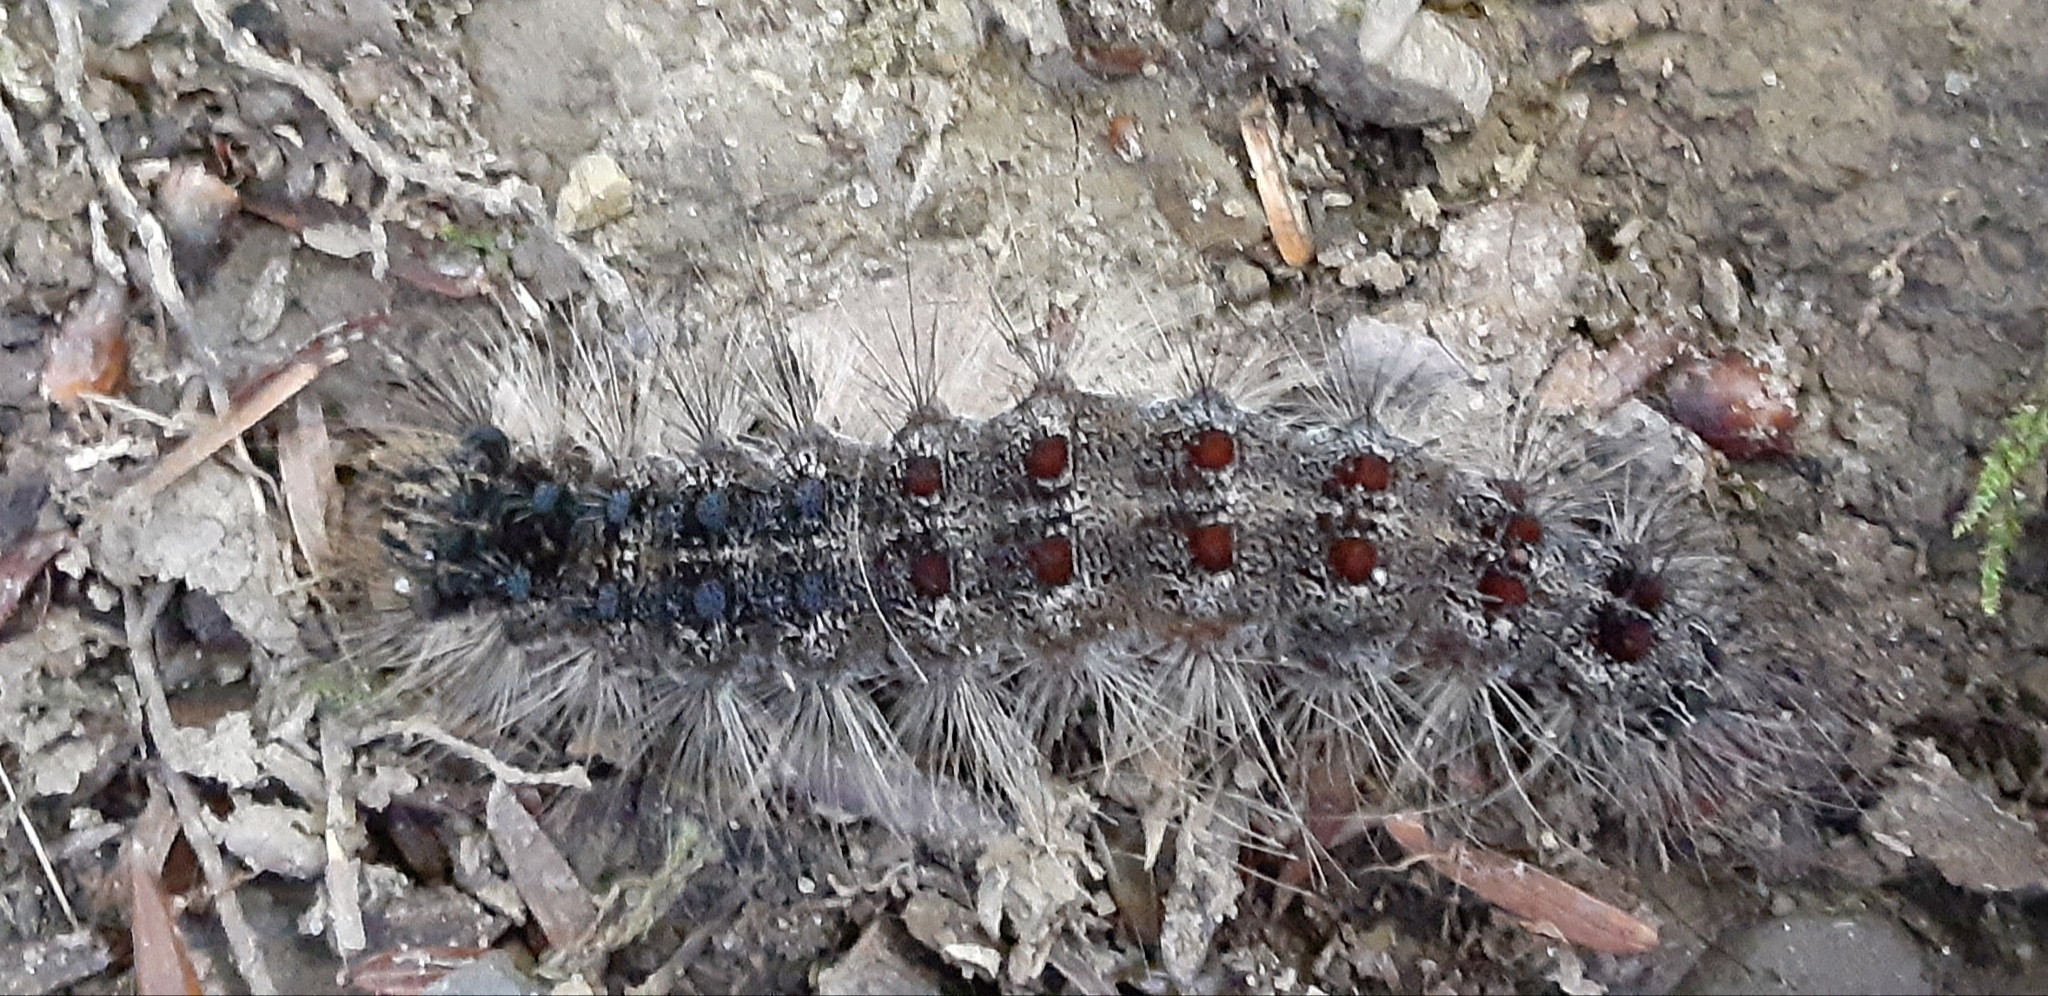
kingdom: Animalia
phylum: Arthropoda
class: Insecta
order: Lepidoptera
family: Erebidae
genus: Lymantria
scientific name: Lymantria dispar
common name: Gypsy moth
